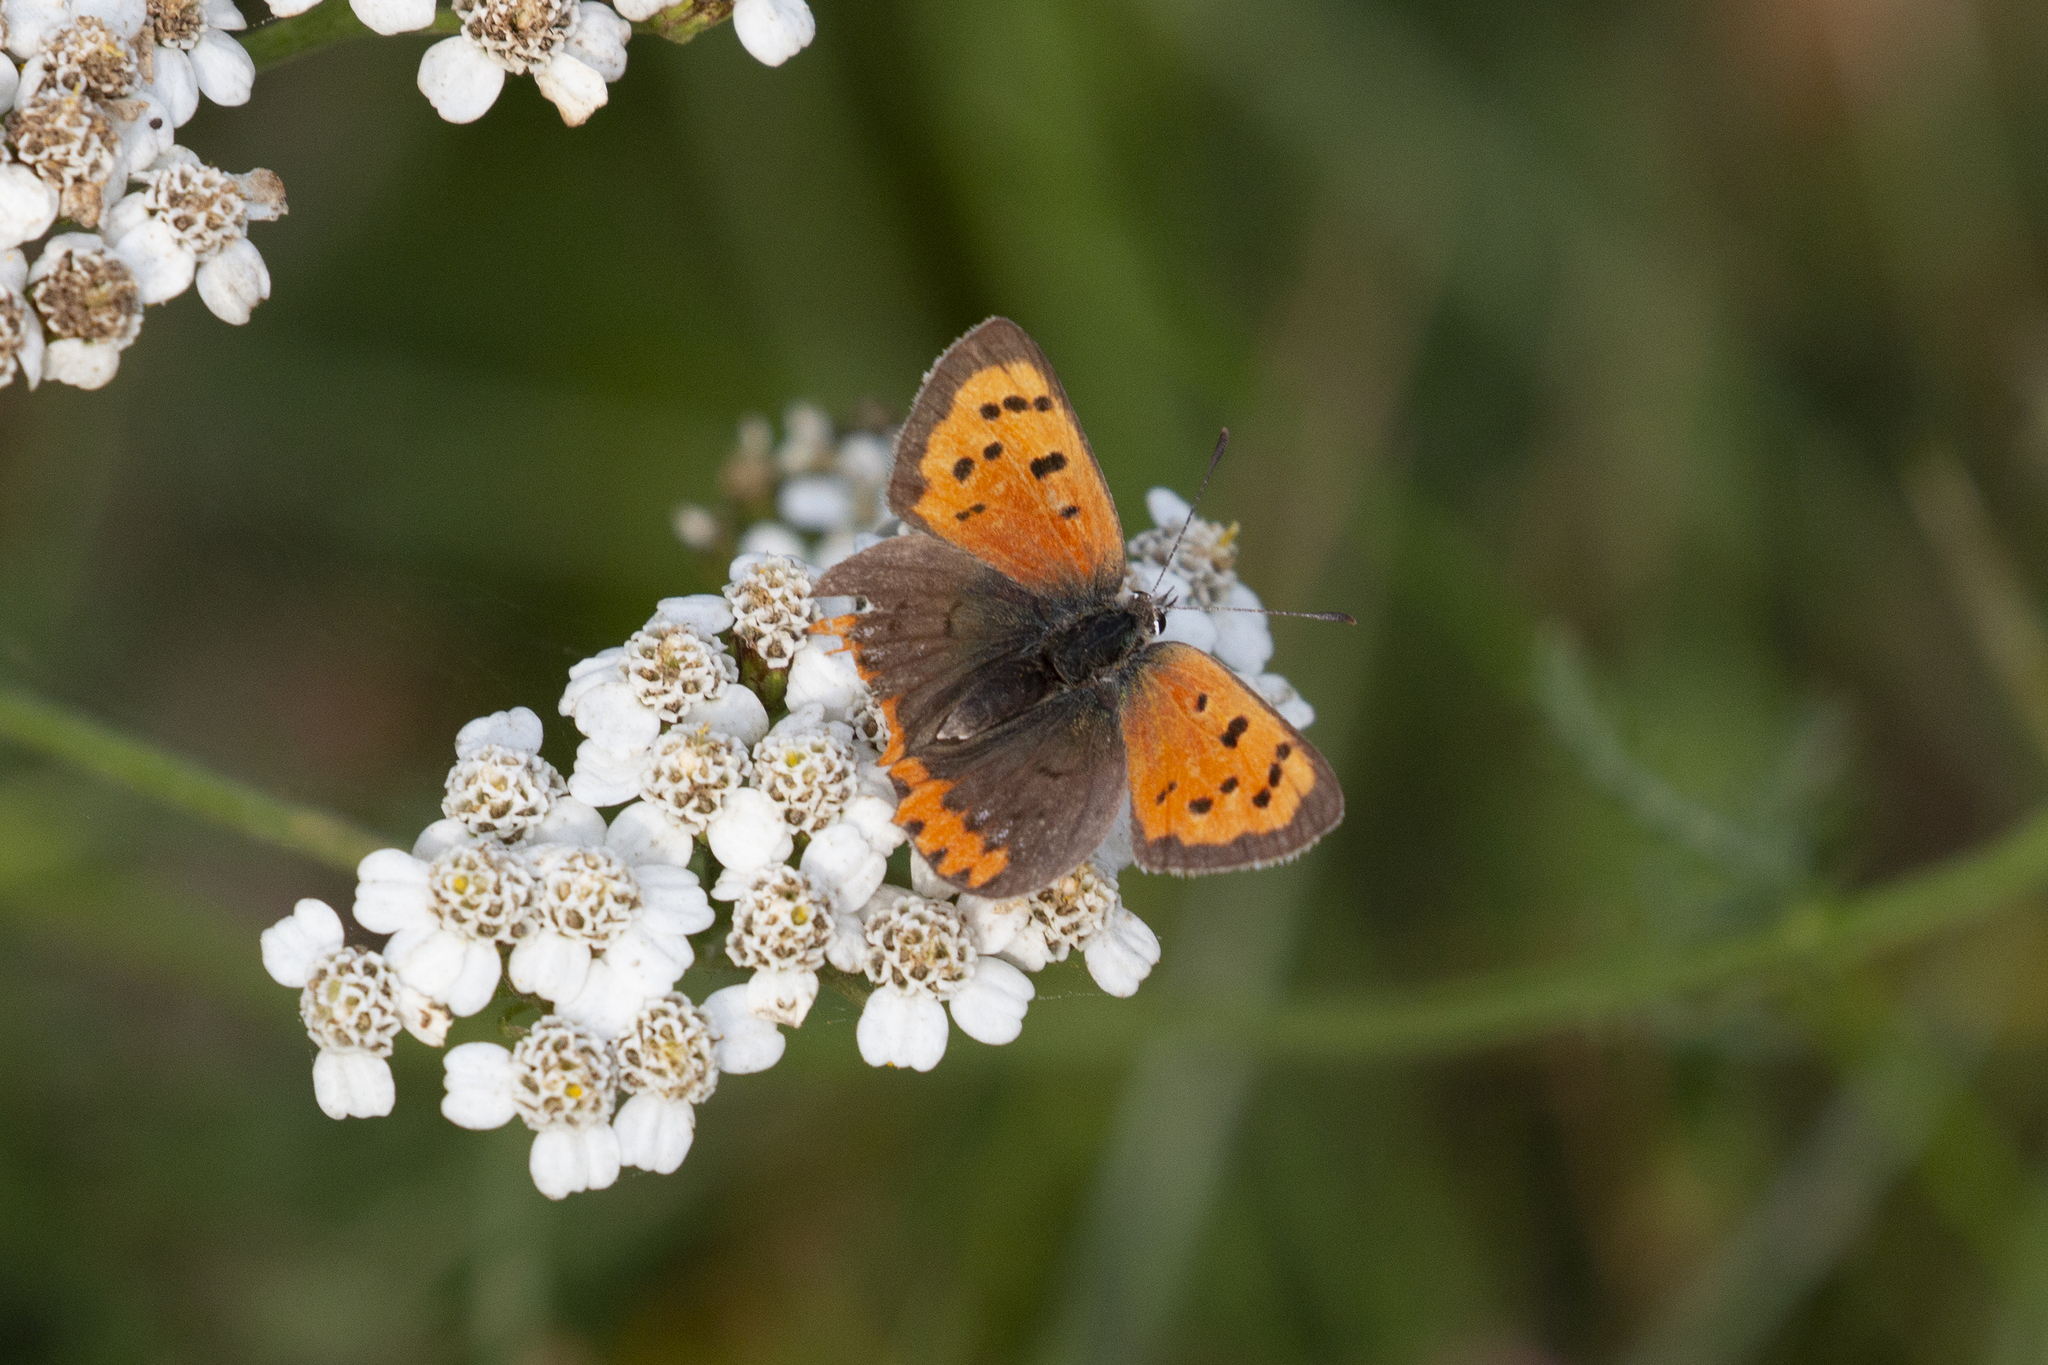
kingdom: Animalia
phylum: Arthropoda
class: Insecta
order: Lepidoptera
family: Lycaenidae
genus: Lycaena
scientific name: Lycaena phlaeas
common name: Small copper
